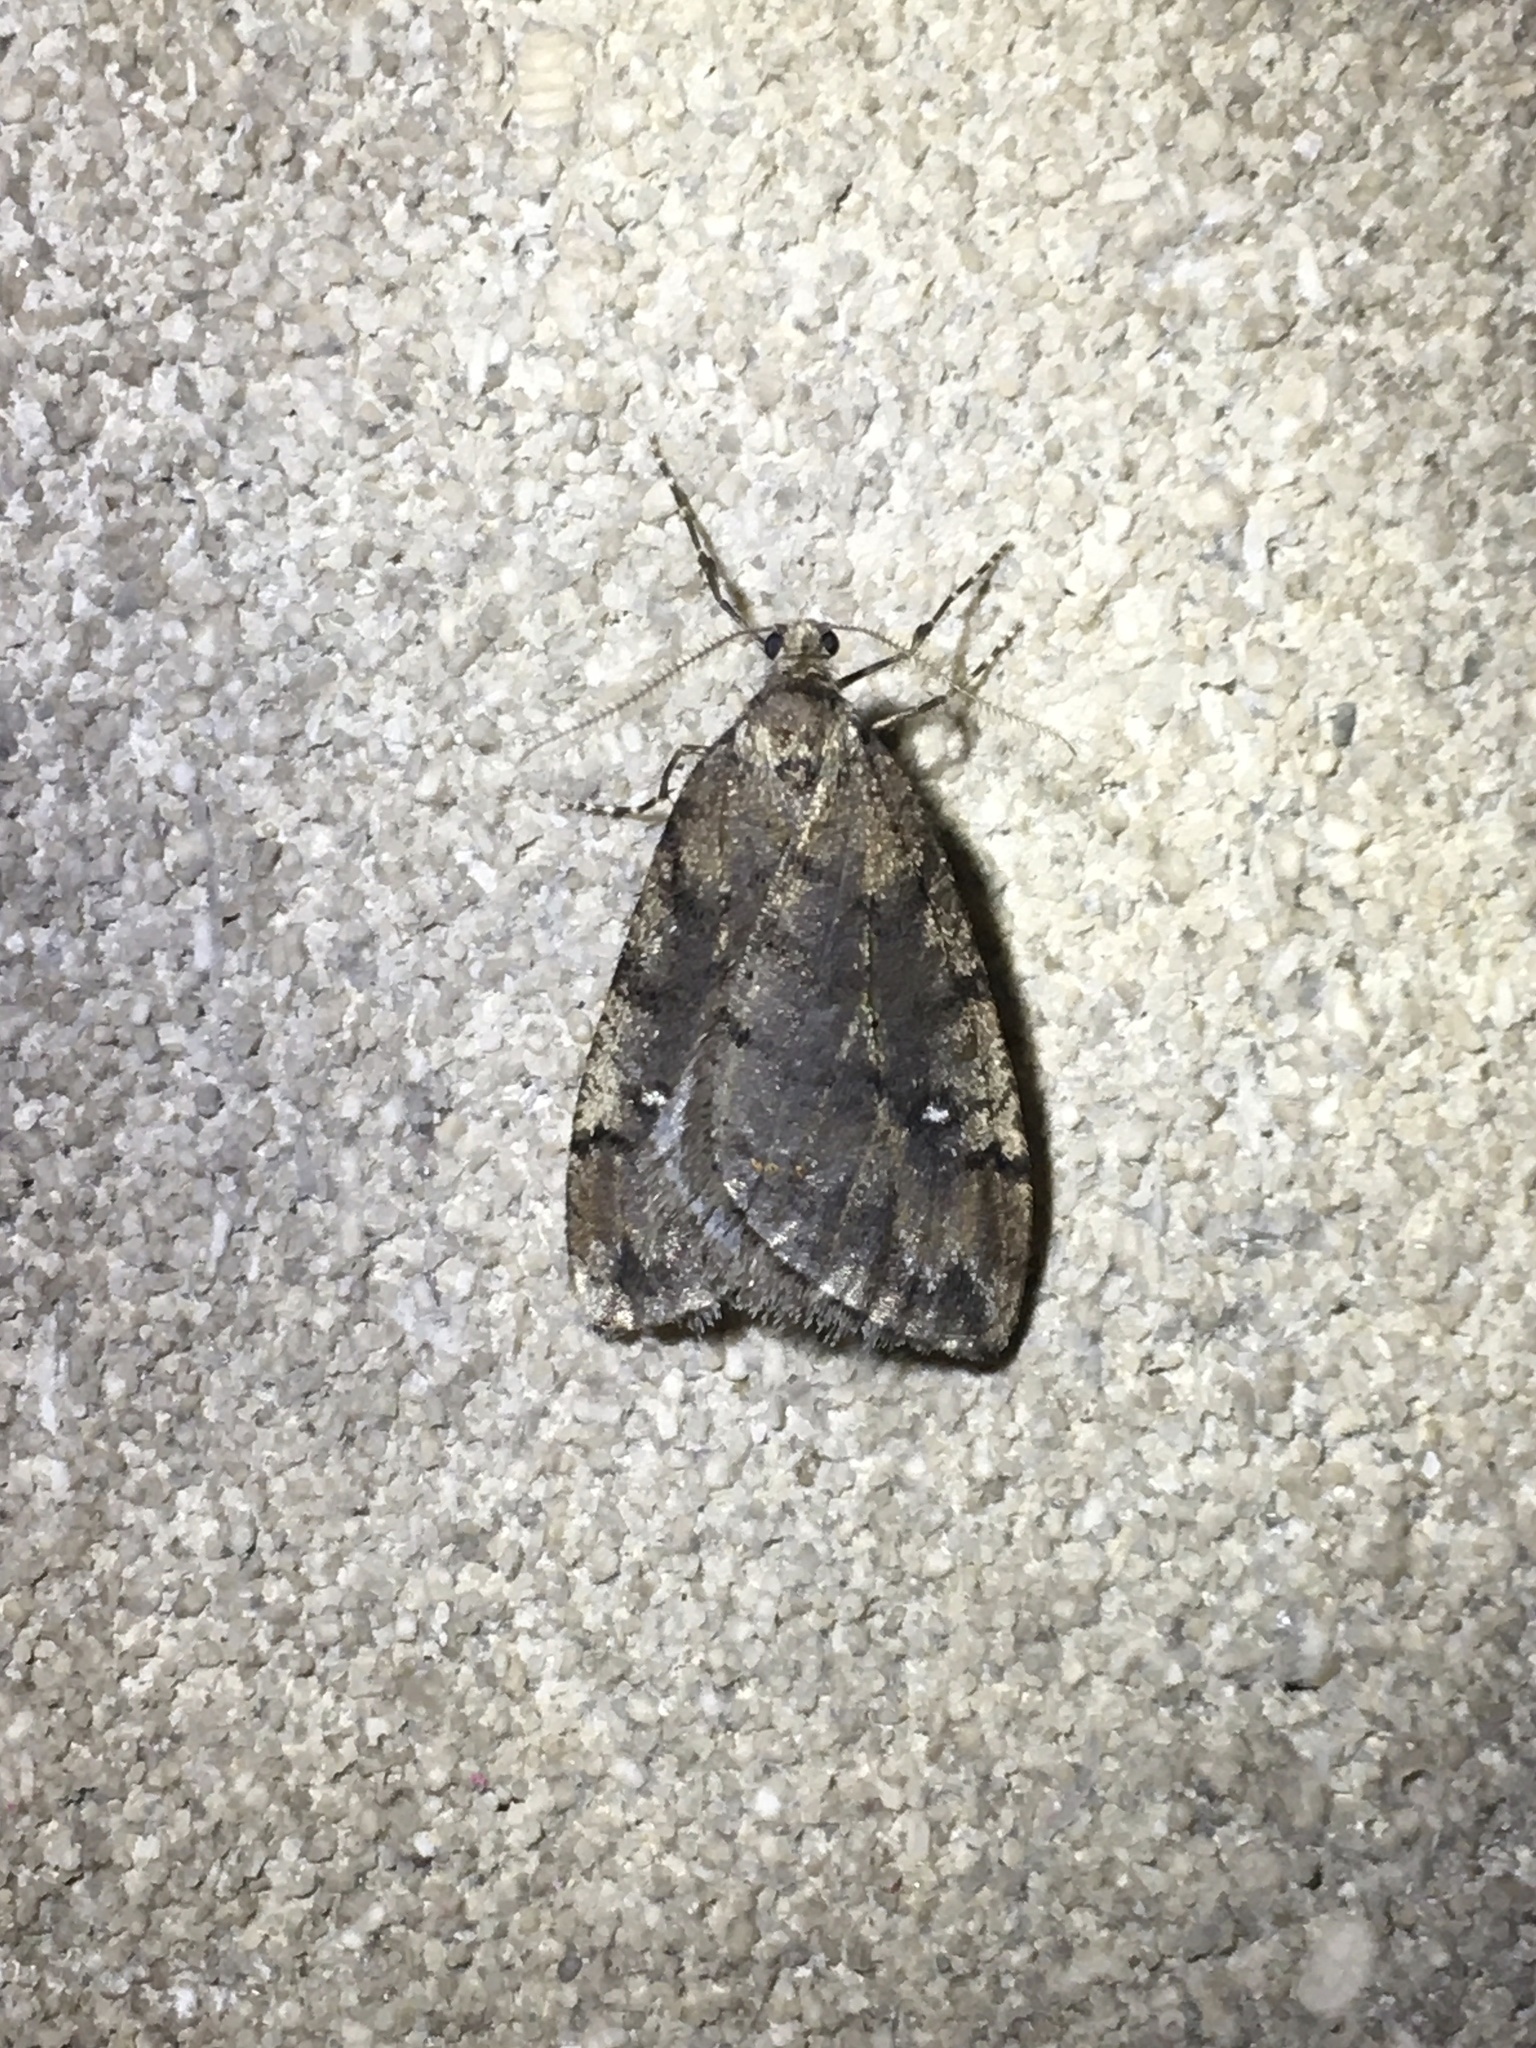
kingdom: Animalia
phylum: Arthropoda
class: Insecta
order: Lepidoptera
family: Geometridae
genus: Paleacrita
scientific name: Paleacrita merriccata
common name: White-spotted canker worm
